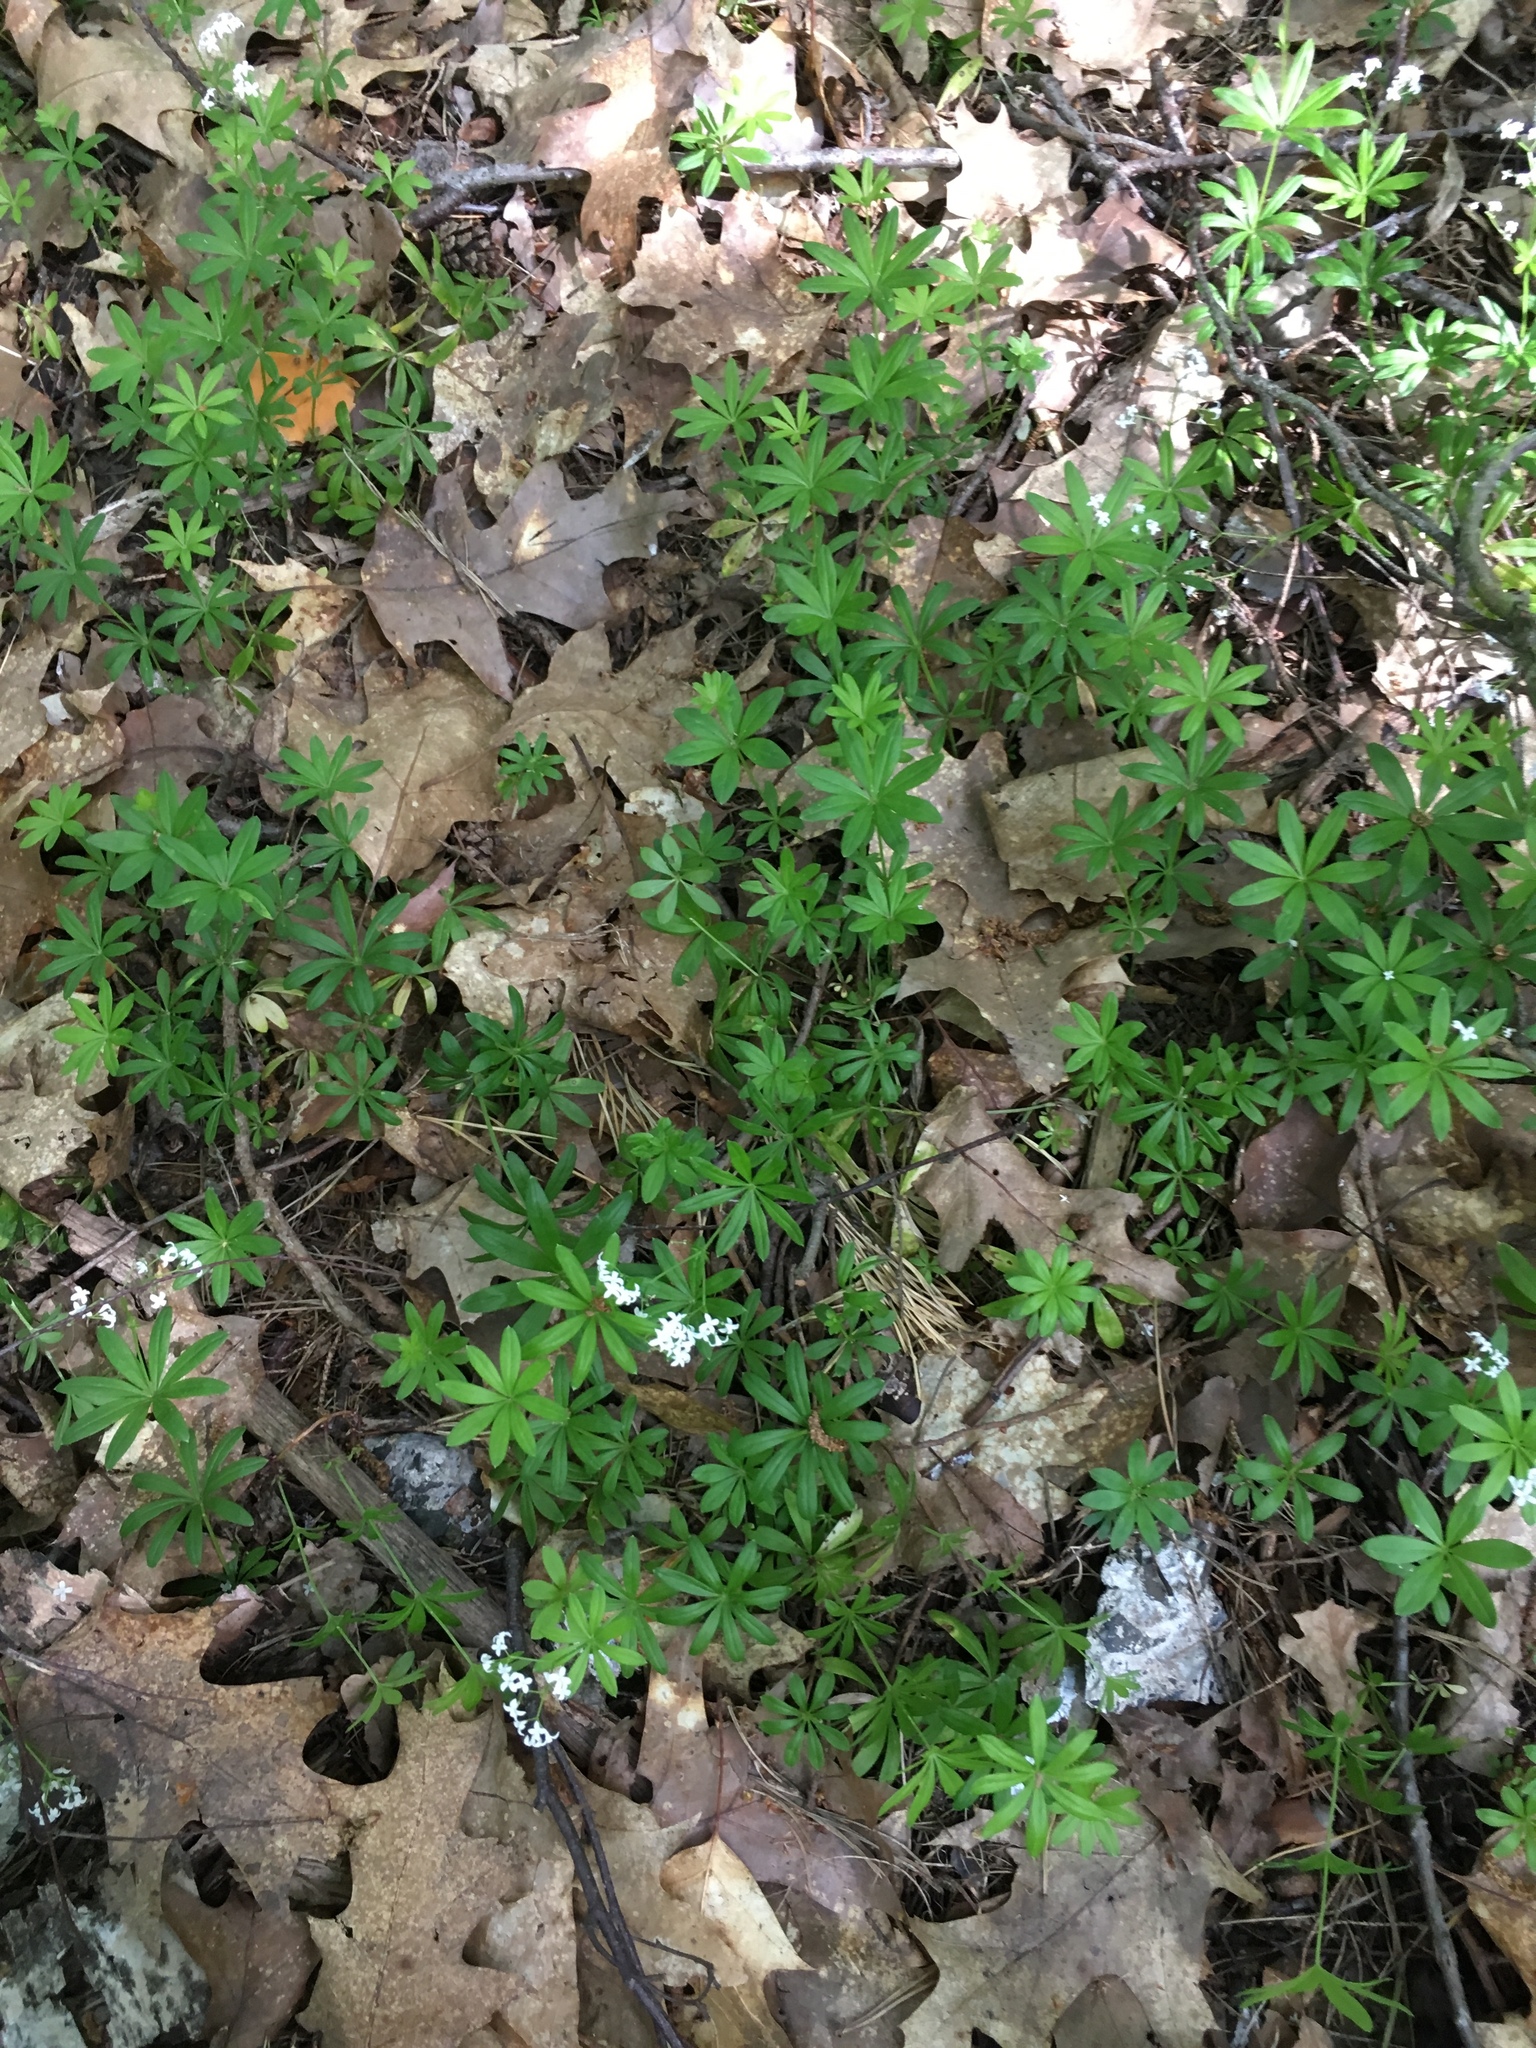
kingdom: Plantae
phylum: Tracheophyta
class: Magnoliopsida
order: Gentianales
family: Rubiaceae
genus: Galium
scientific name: Galium odoratum
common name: Sweet woodruff
